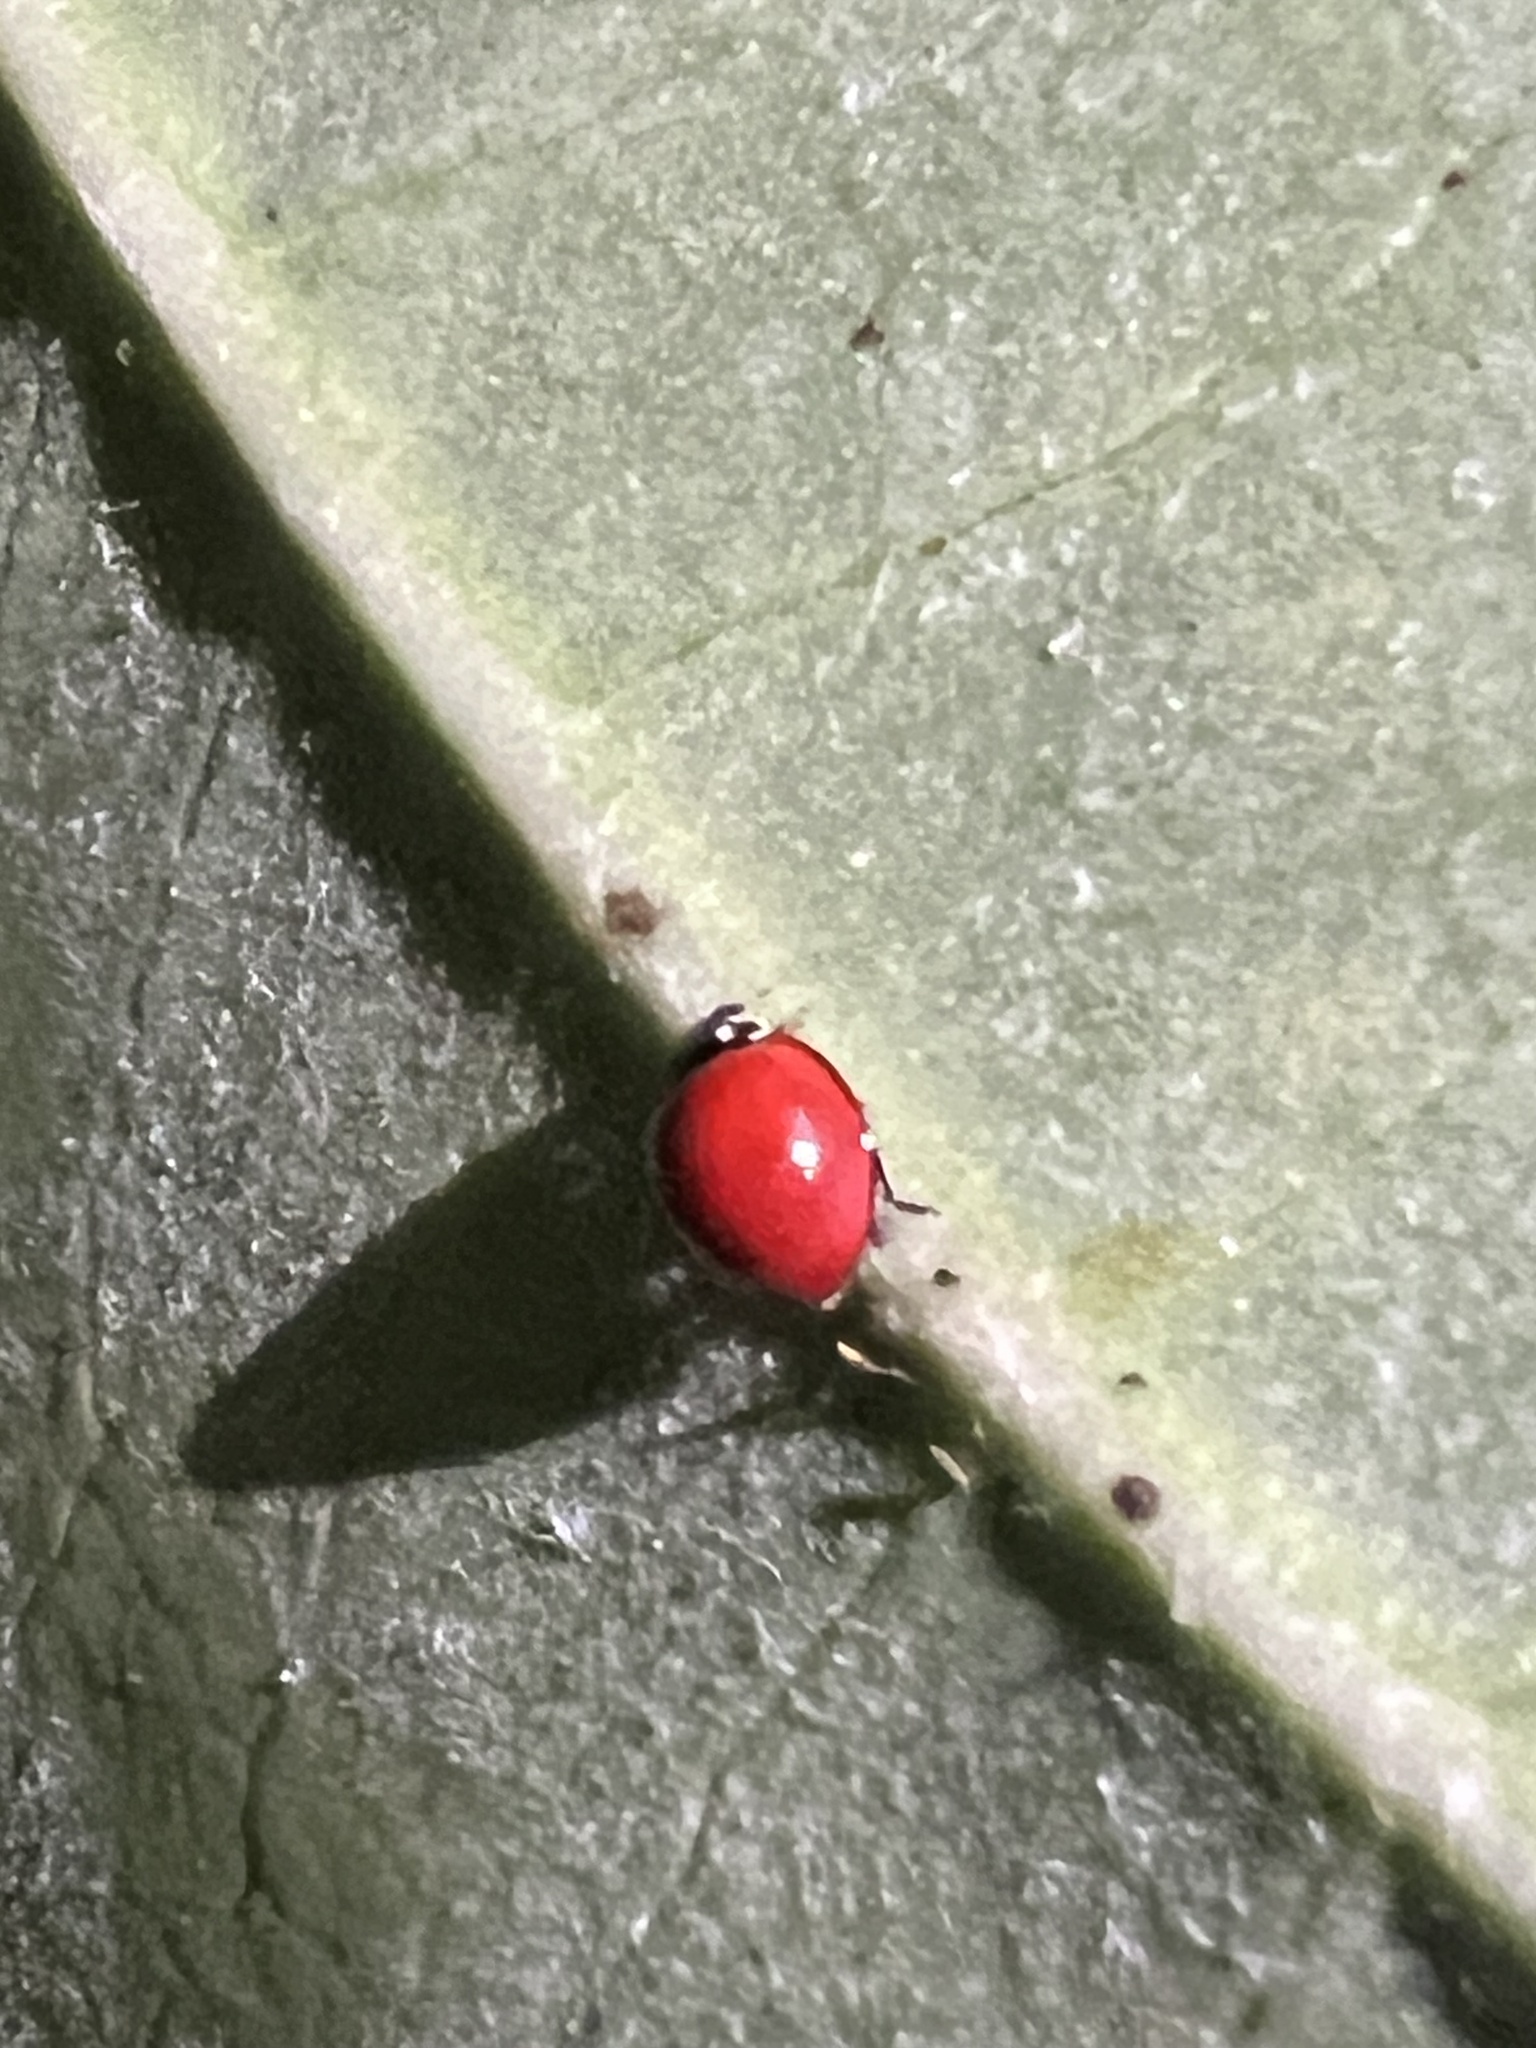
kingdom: Animalia
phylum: Arthropoda
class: Insecta
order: Coleoptera
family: Coccinellidae
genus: Cycloneda
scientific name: Cycloneda sanguinea
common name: Ladybird beetle
